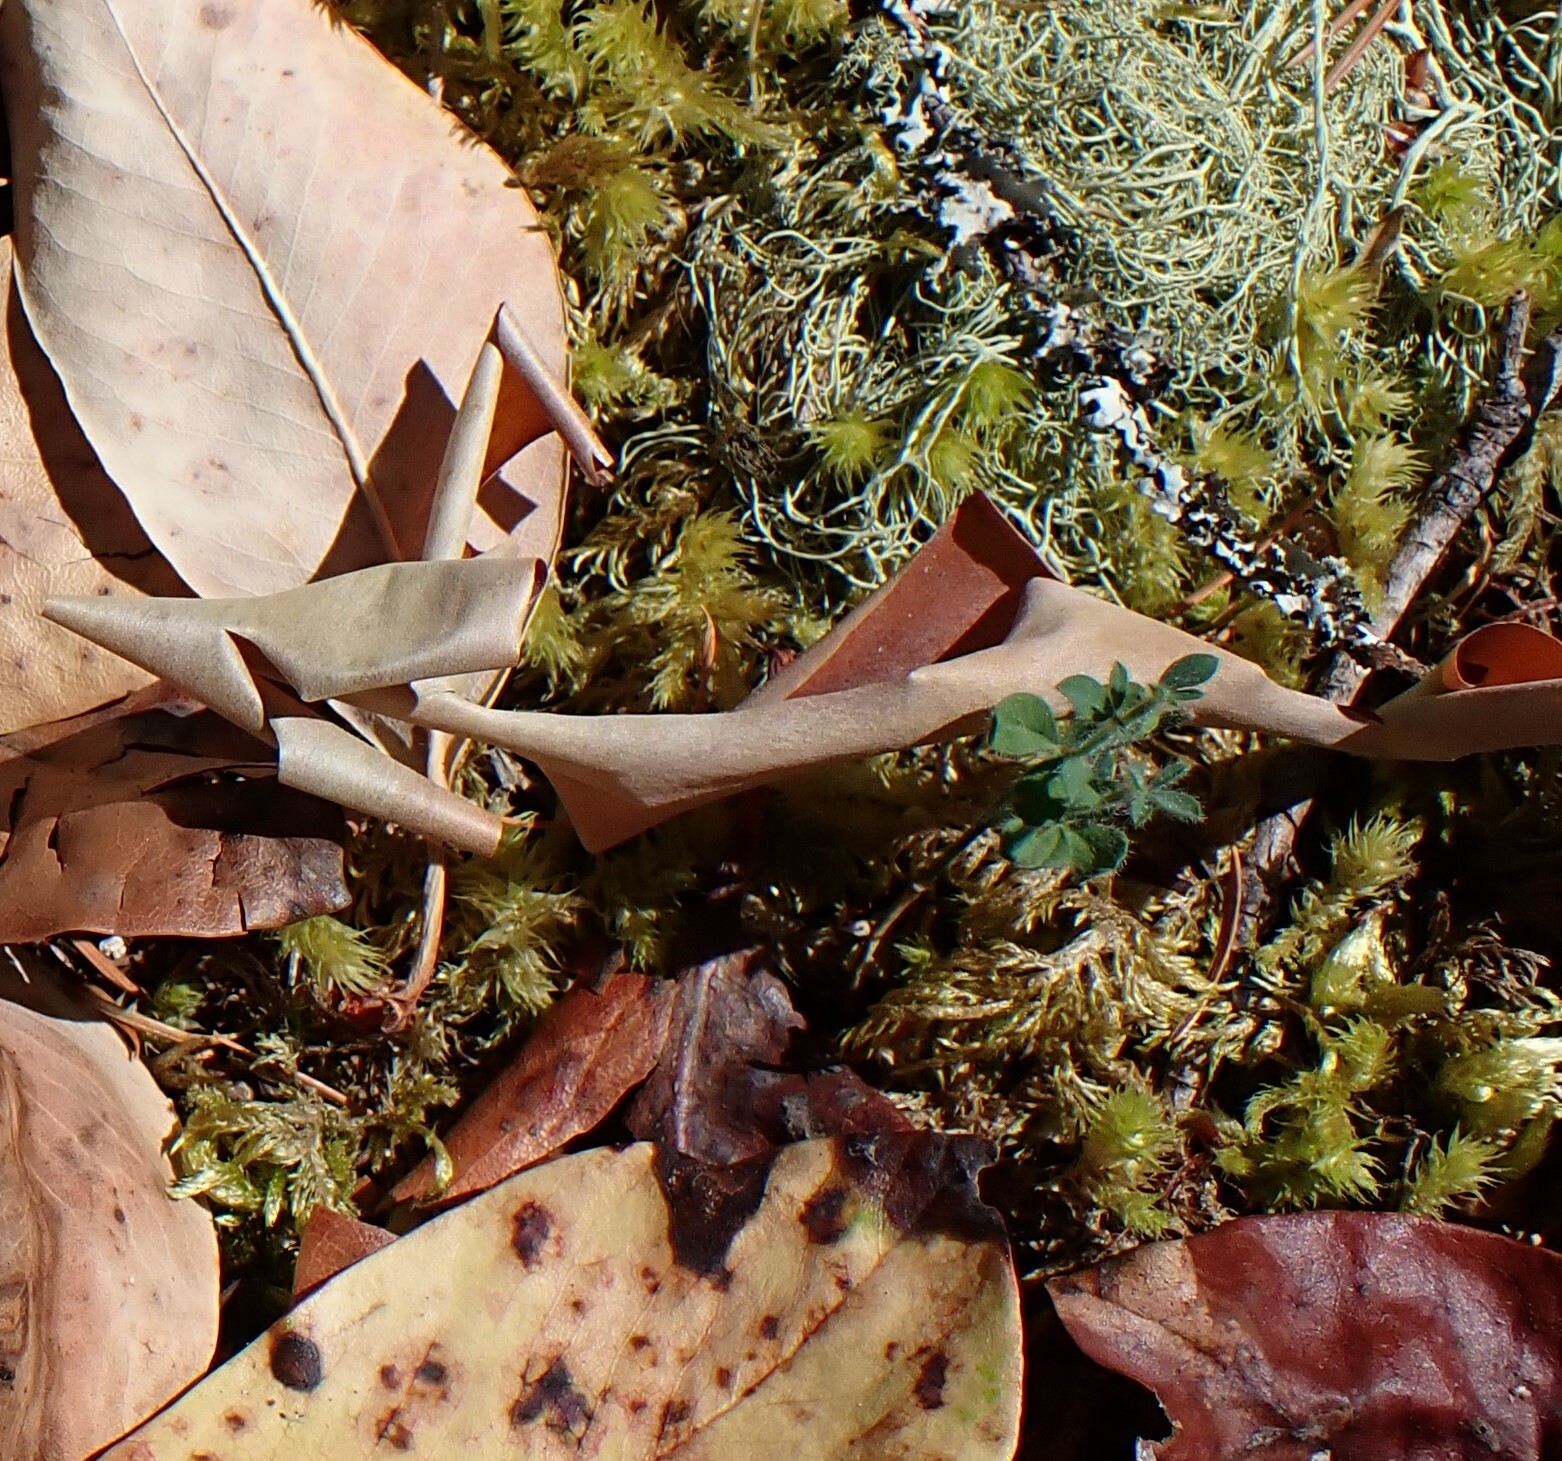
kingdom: Plantae
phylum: Tracheophyta
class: Magnoliopsida
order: Fabales
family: Fabaceae
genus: Cytisus
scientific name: Cytisus scoparius
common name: Scotch broom
